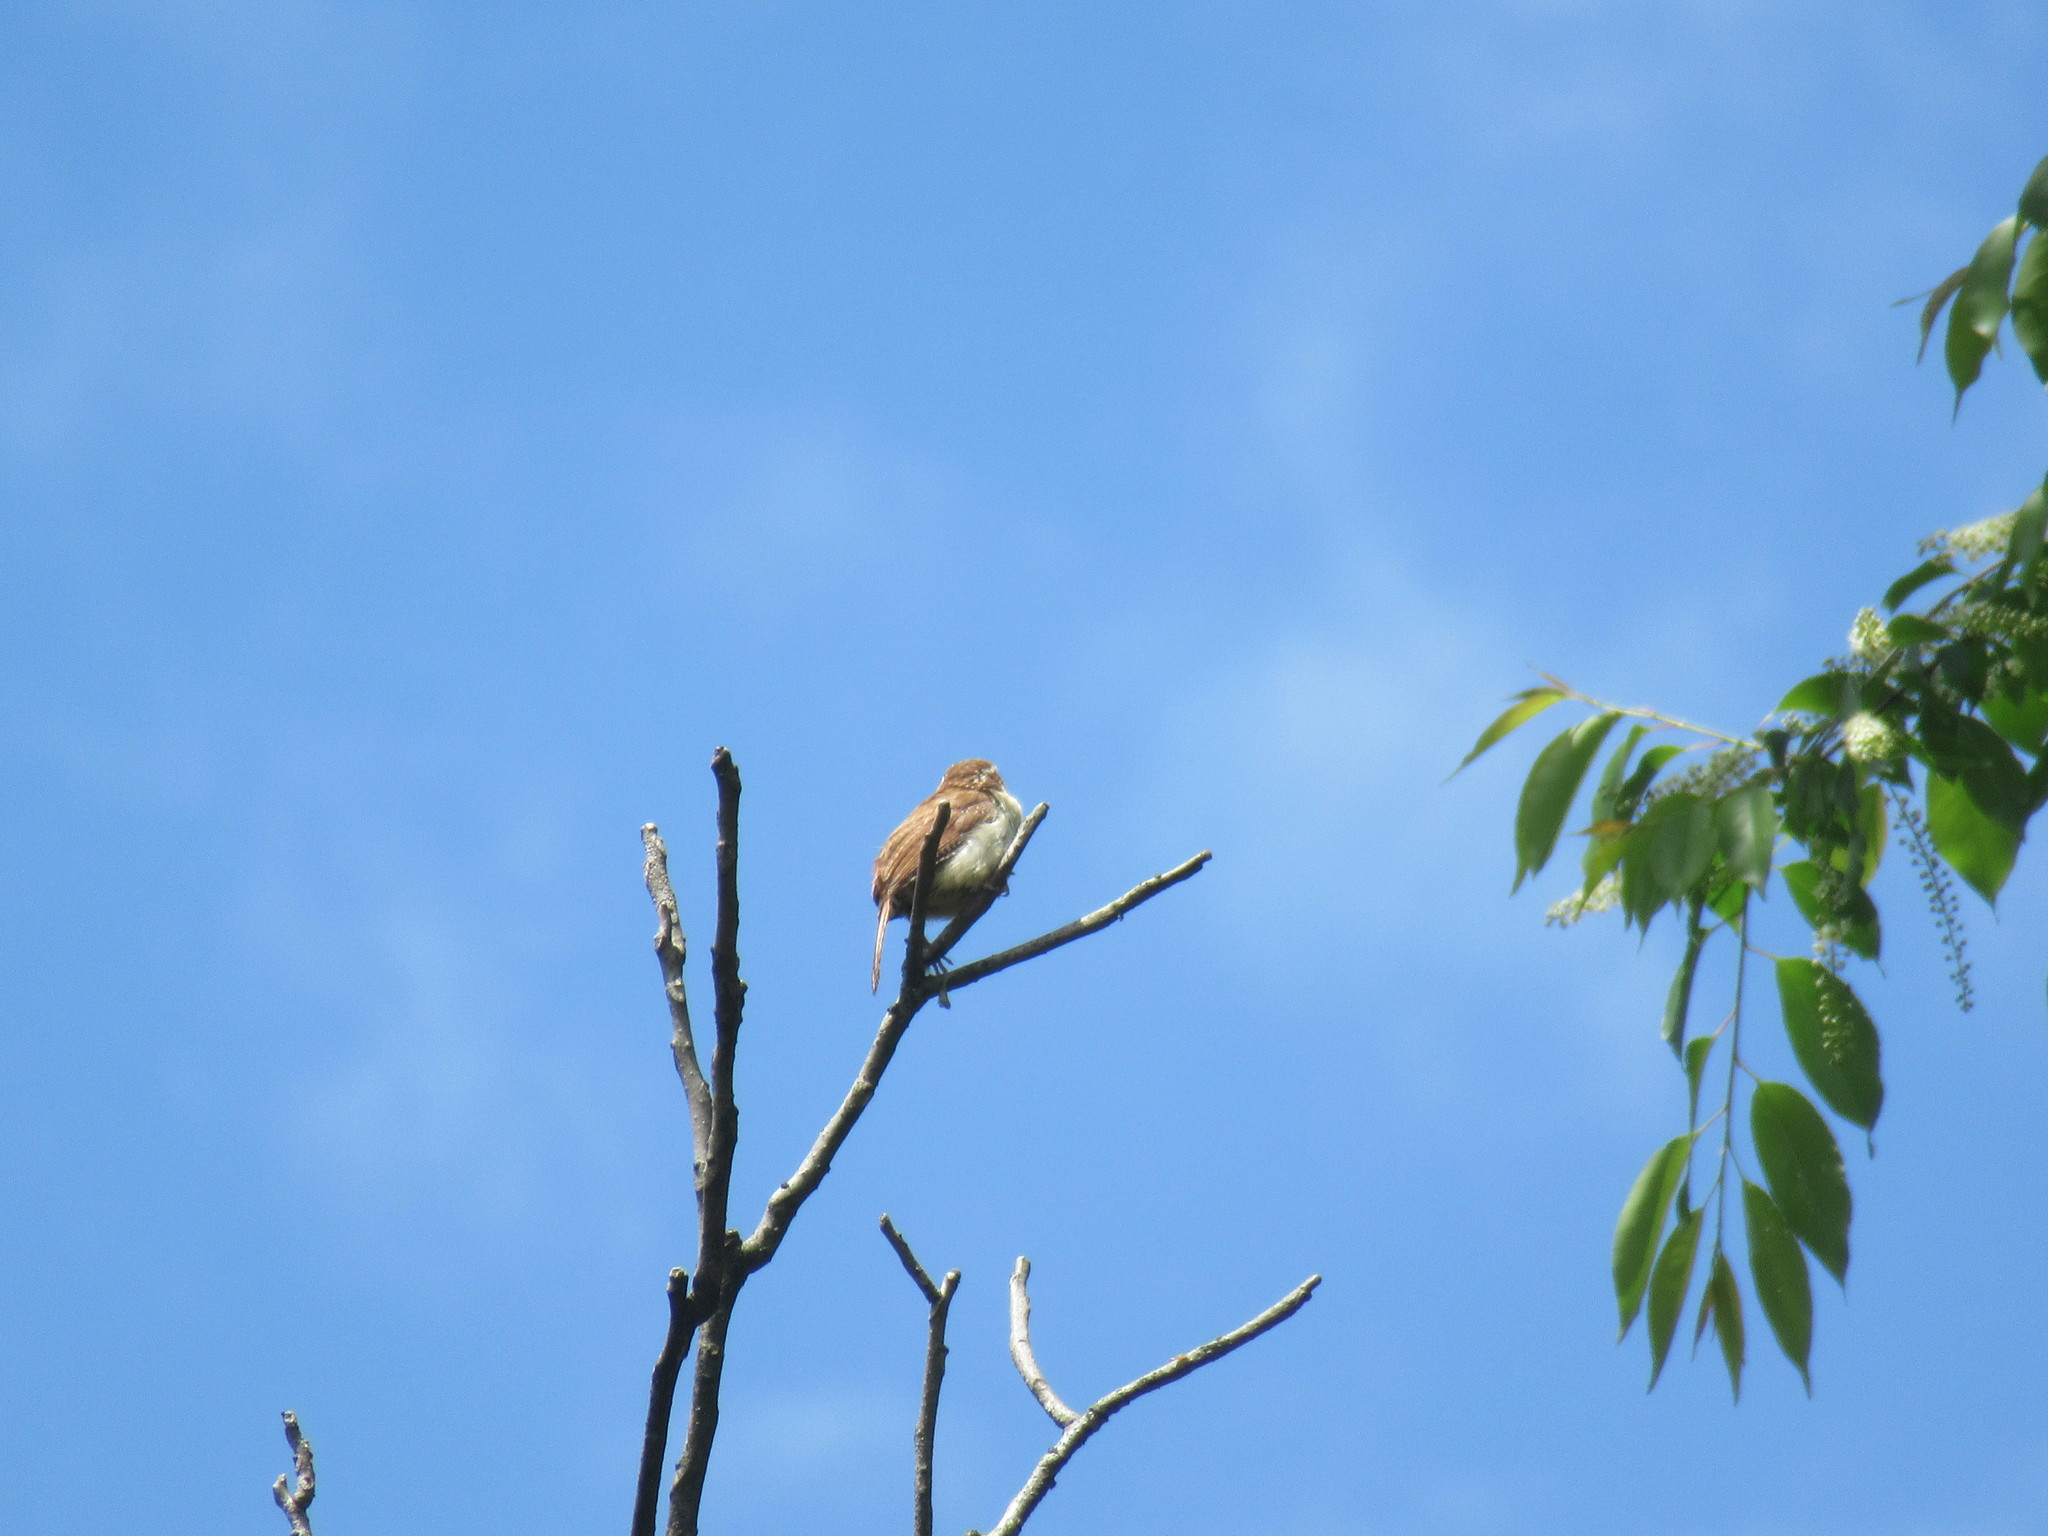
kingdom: Animalia
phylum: Chordata
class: Aves
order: Passeriformes
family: Troglodytidae
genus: Thryothorus
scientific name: Thryothorus ludovicianus
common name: Carolina wren
